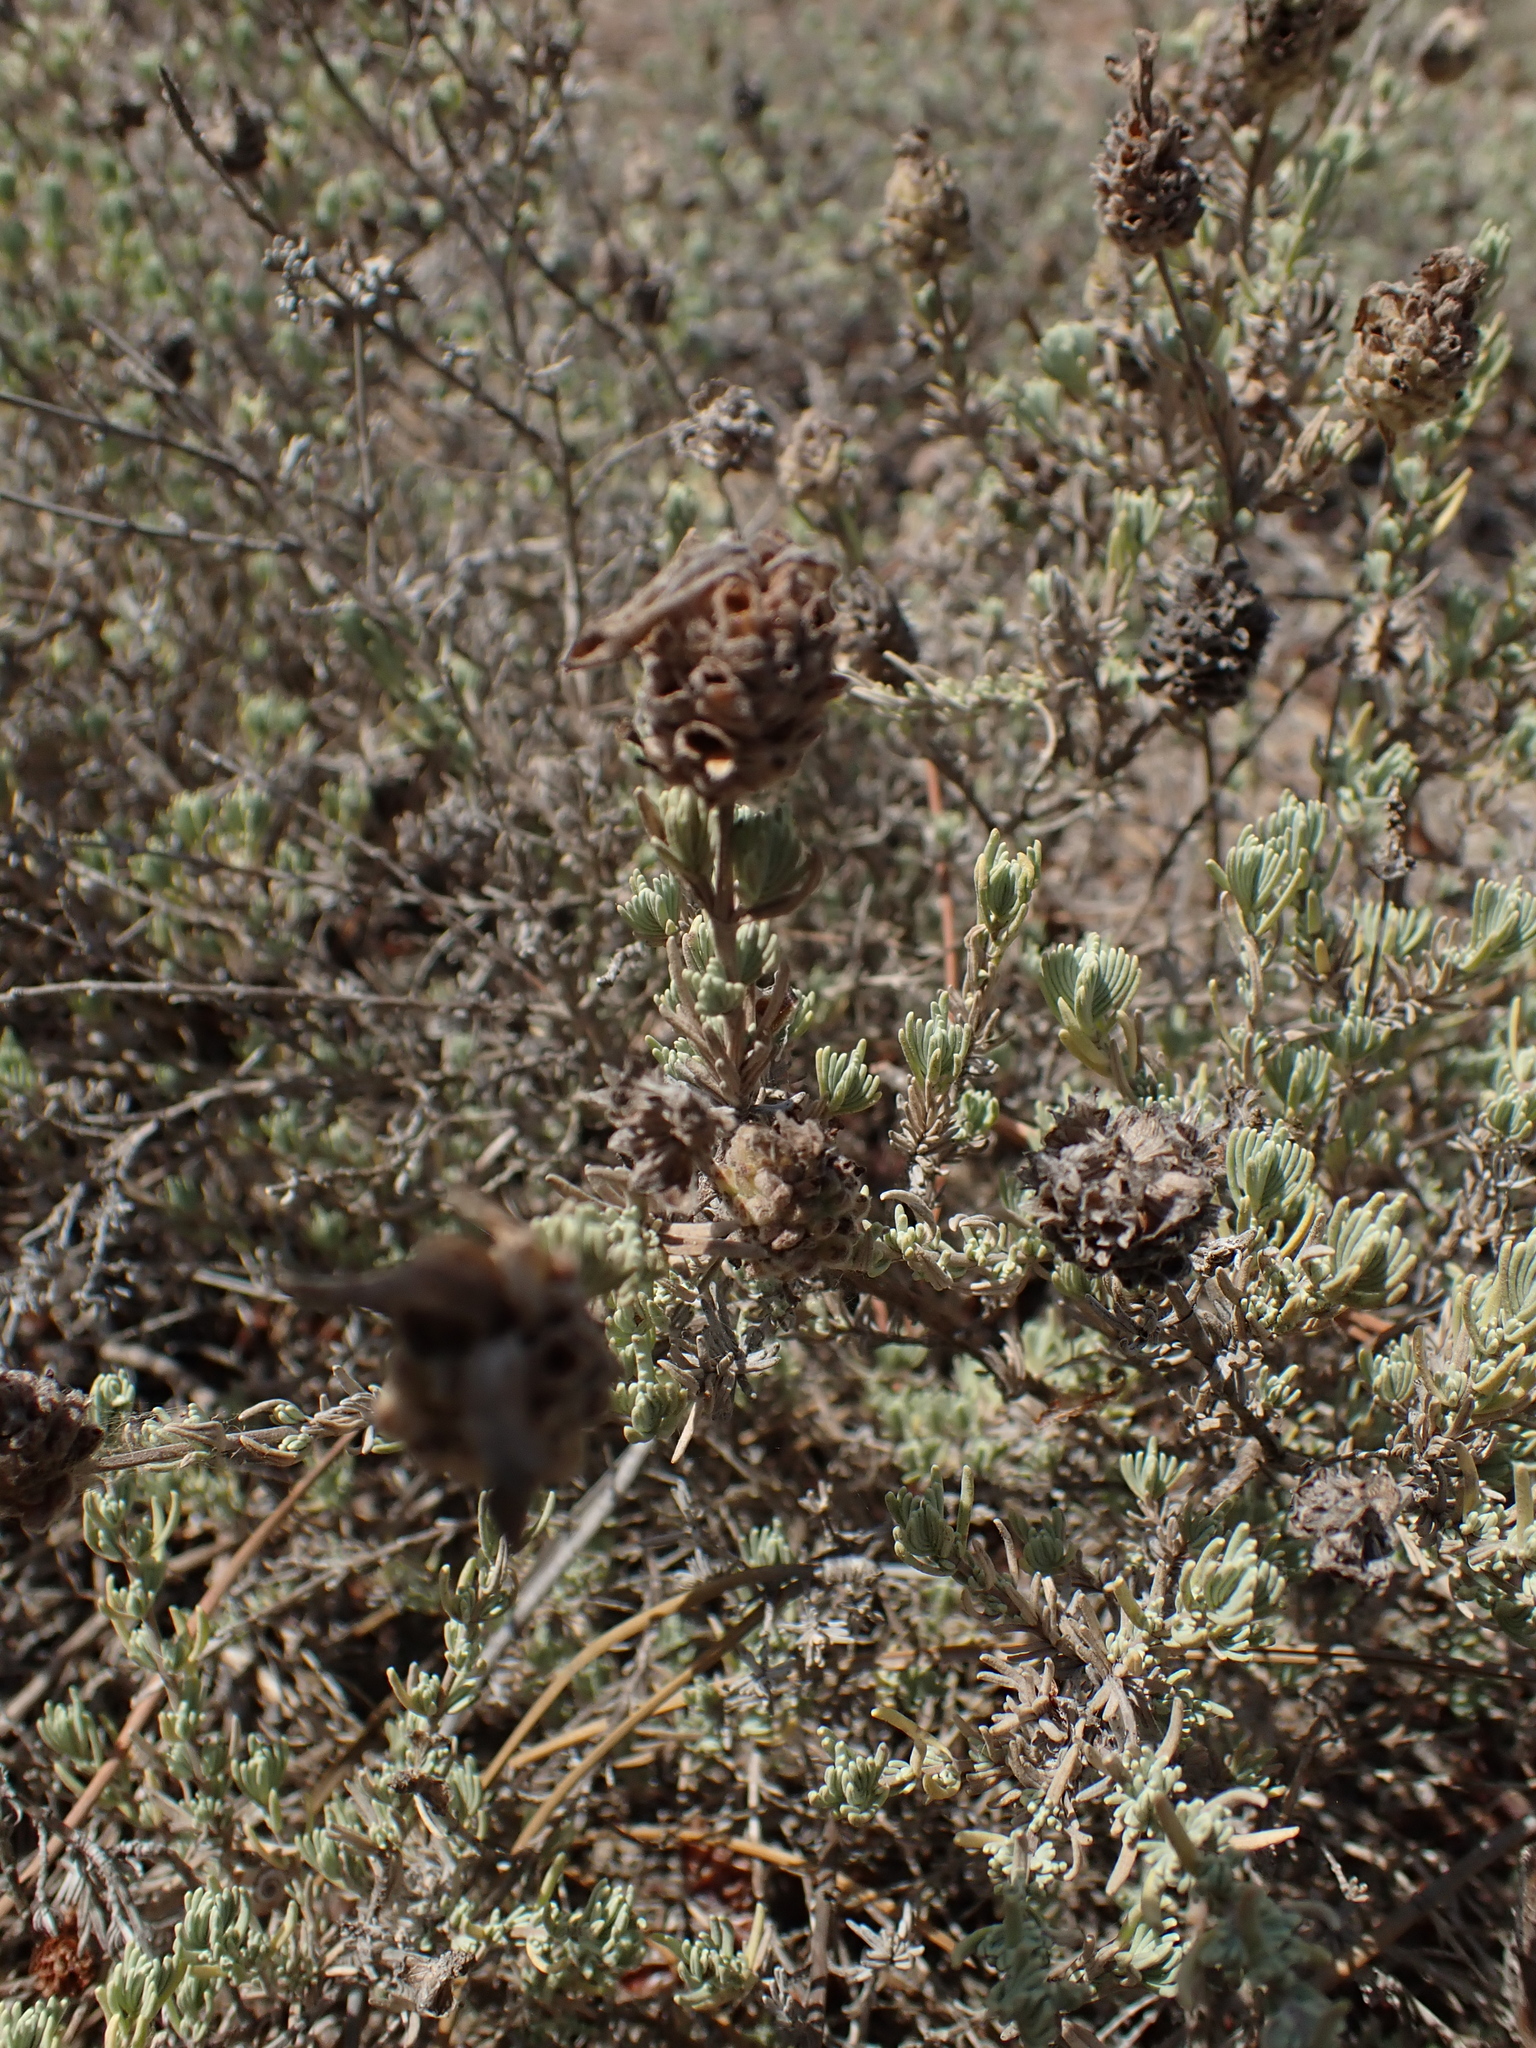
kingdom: Plantae
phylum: Tracheophyta
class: Magnoliopsida
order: Lamiales
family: Lamiaceae
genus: Lavandula
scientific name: Lavandula stoechas
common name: French lavender
